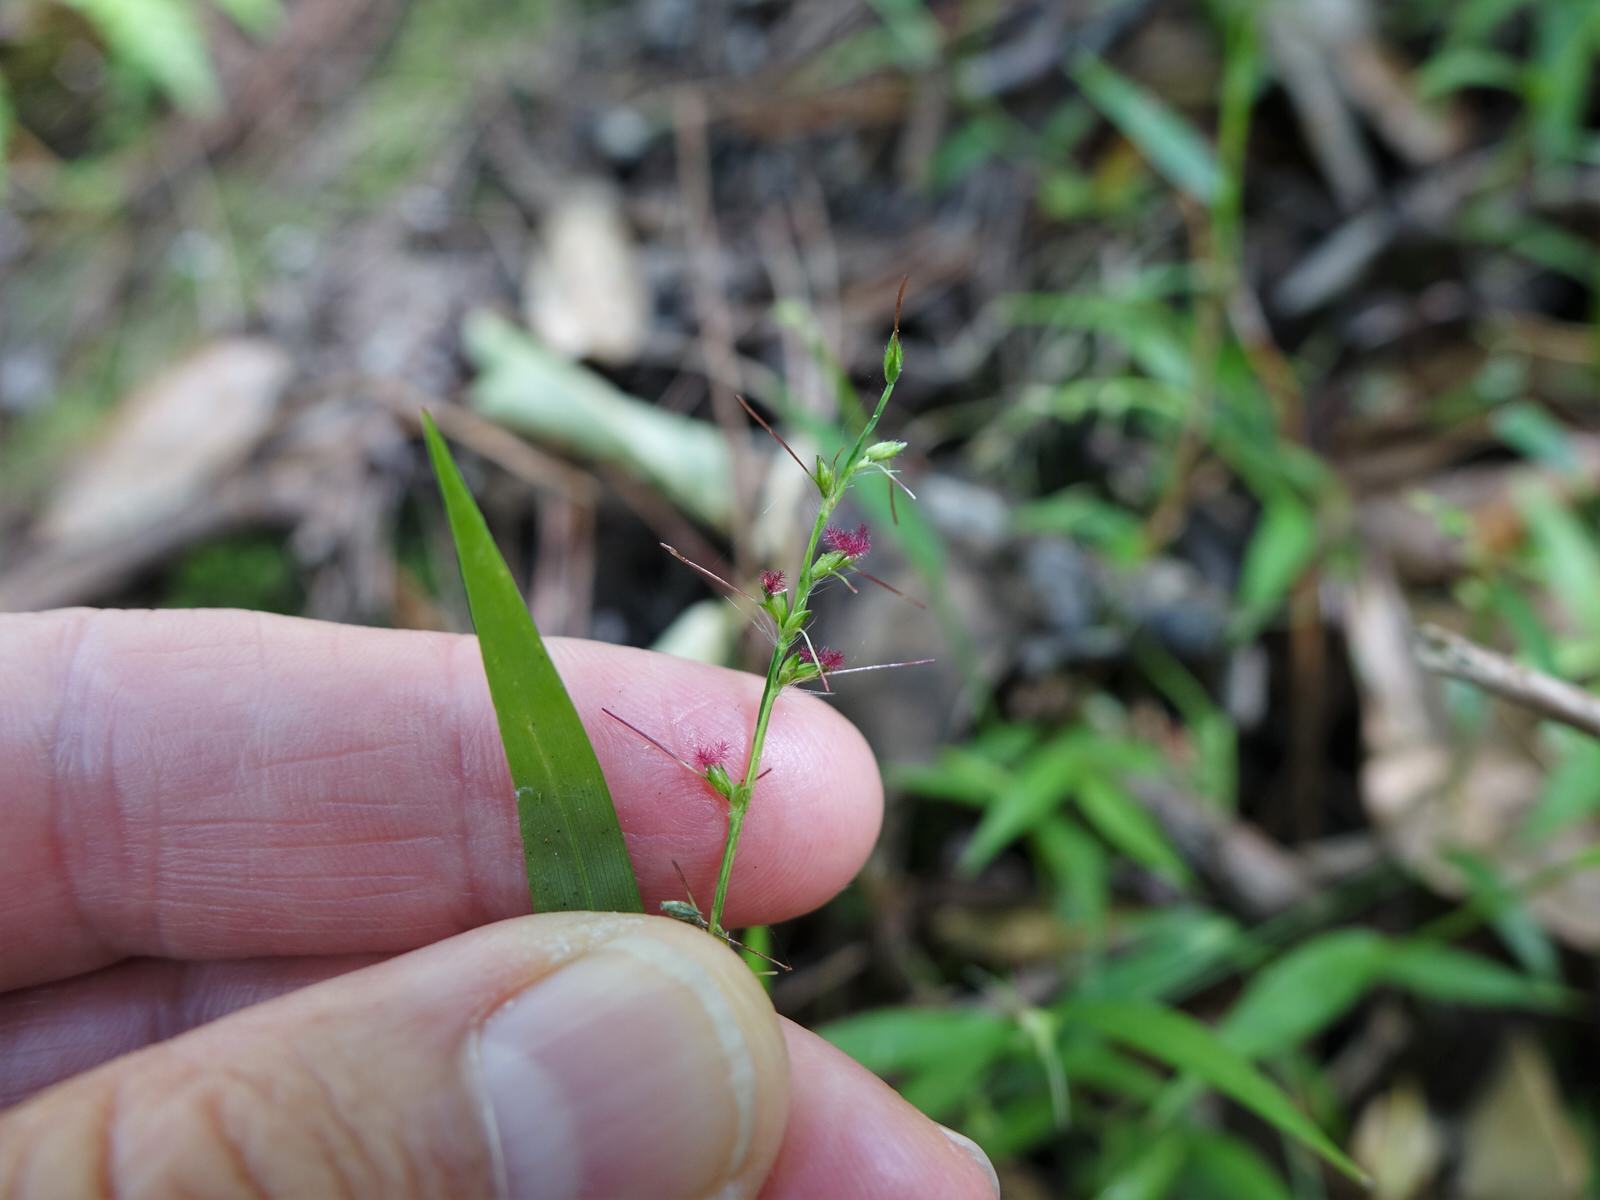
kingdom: Plantae
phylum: Tracheophyta
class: Liliopsida
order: Poales
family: Poaceae
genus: Oplismenus
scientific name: Oplismenus hirtellus
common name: Basketgrass
